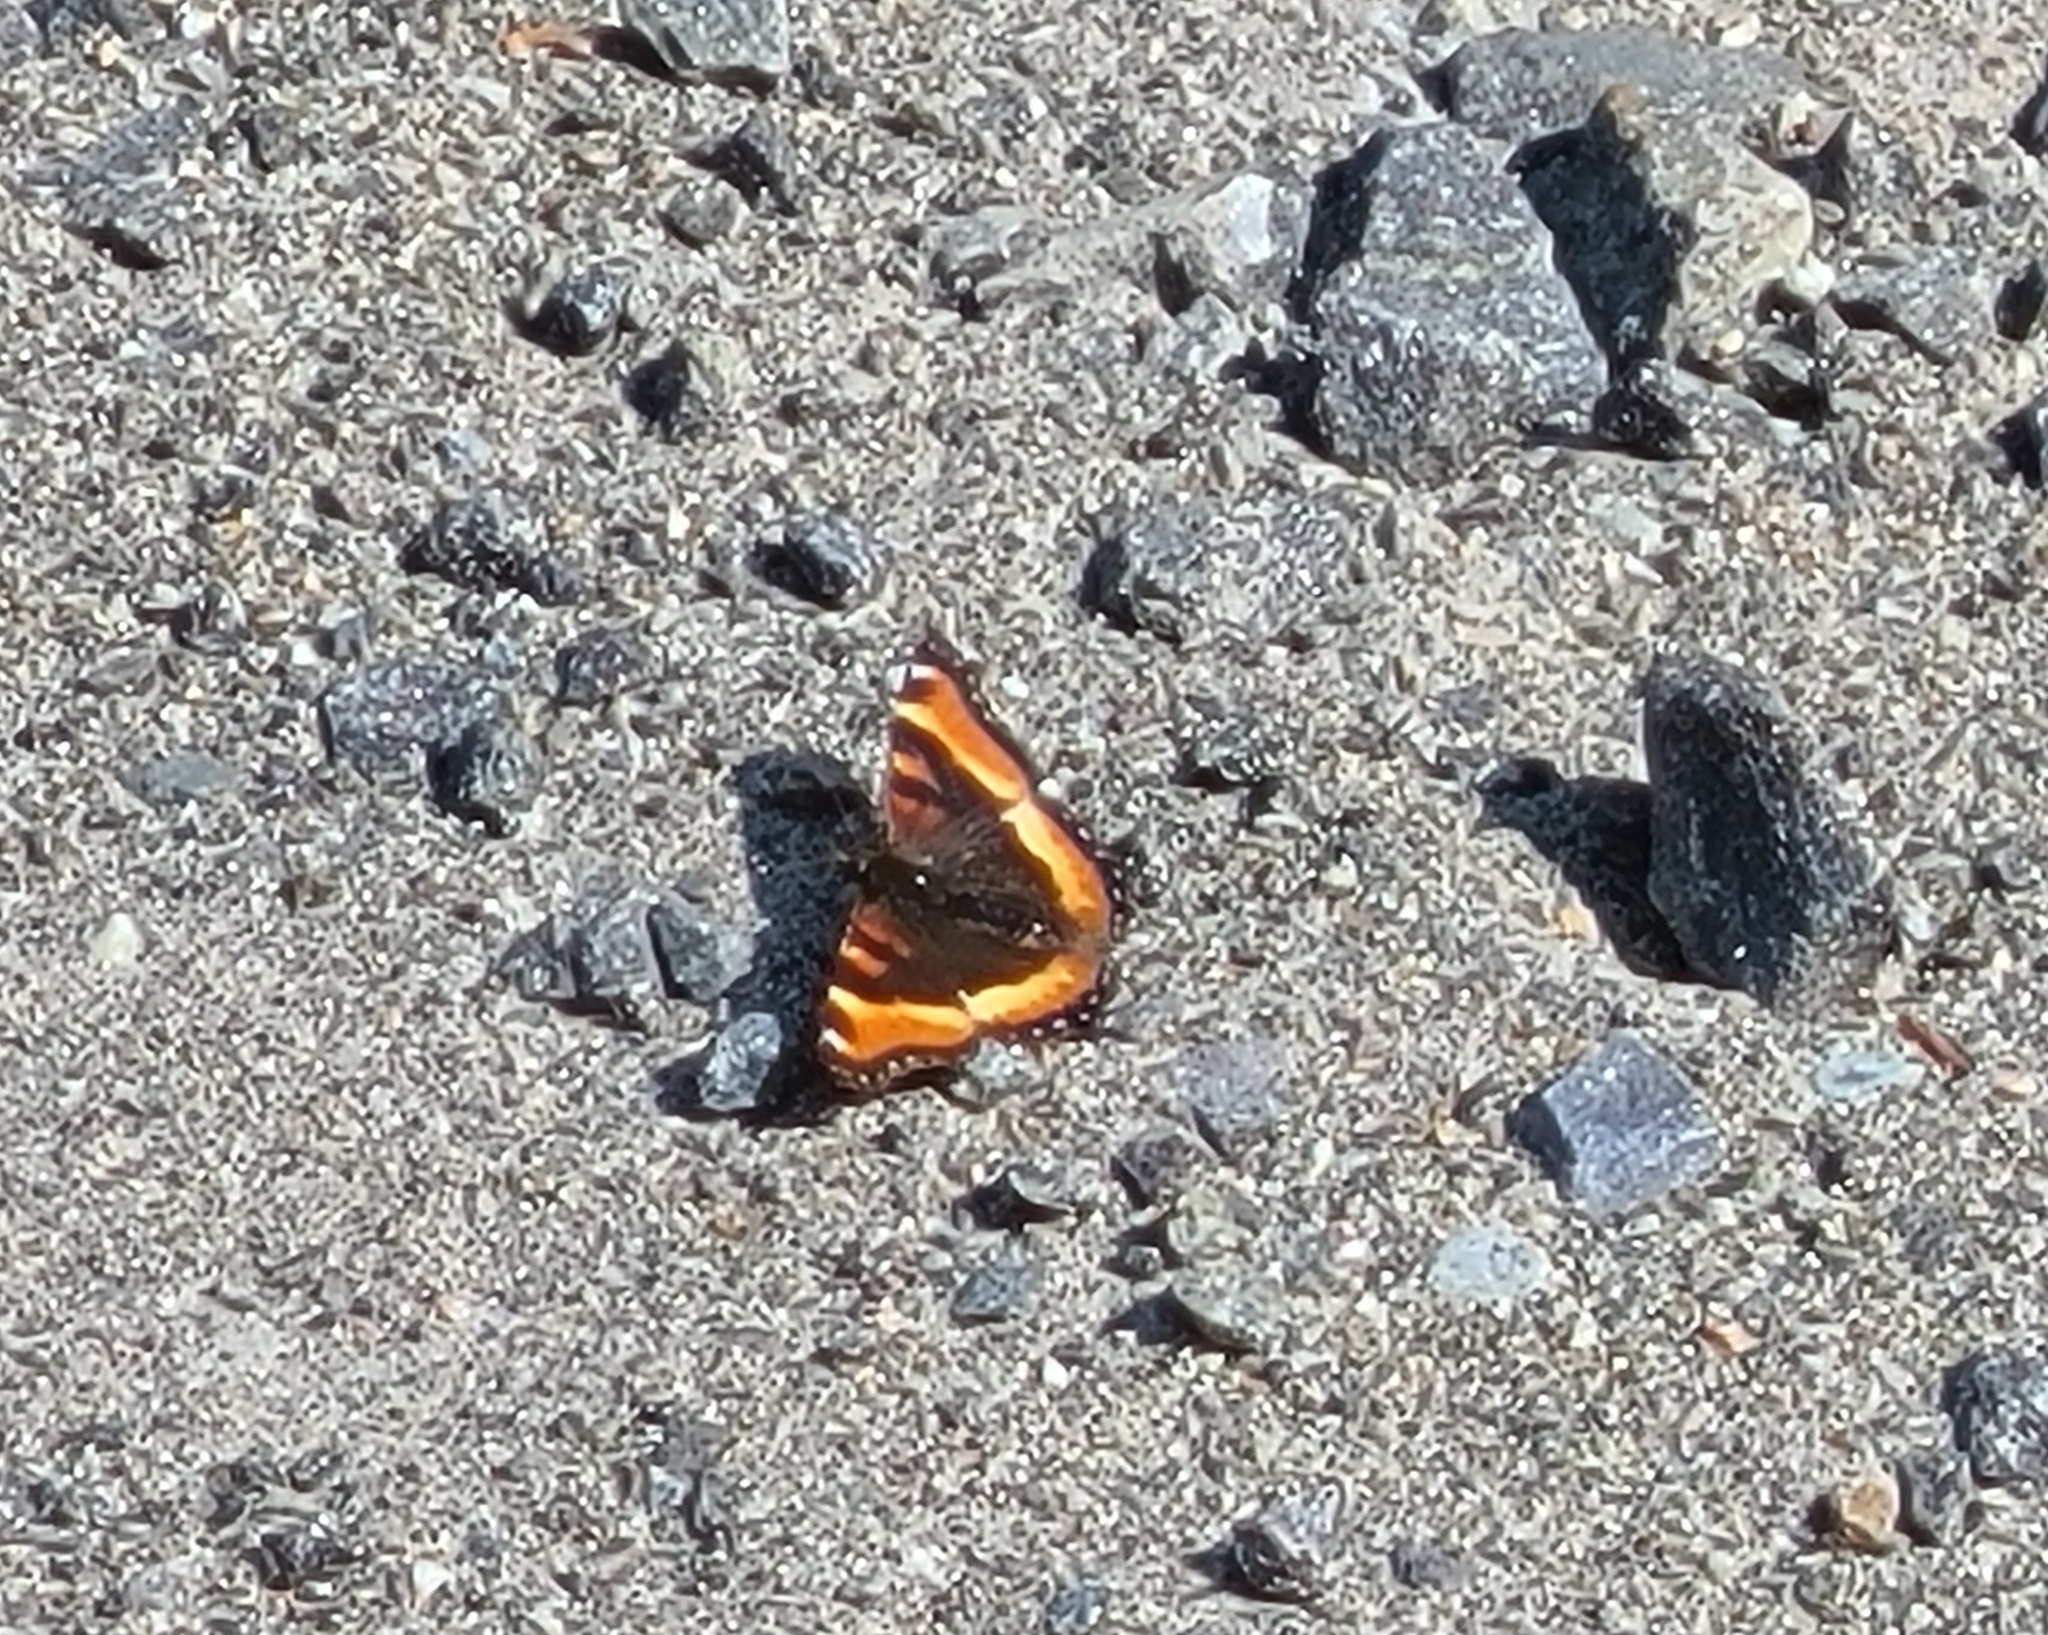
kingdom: Animalia
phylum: Arthropoda
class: Insecta
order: Lepidoptera
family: Nymphalidae
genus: Aglais
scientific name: Aglais milberti
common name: Milbert's tortoiseshell
